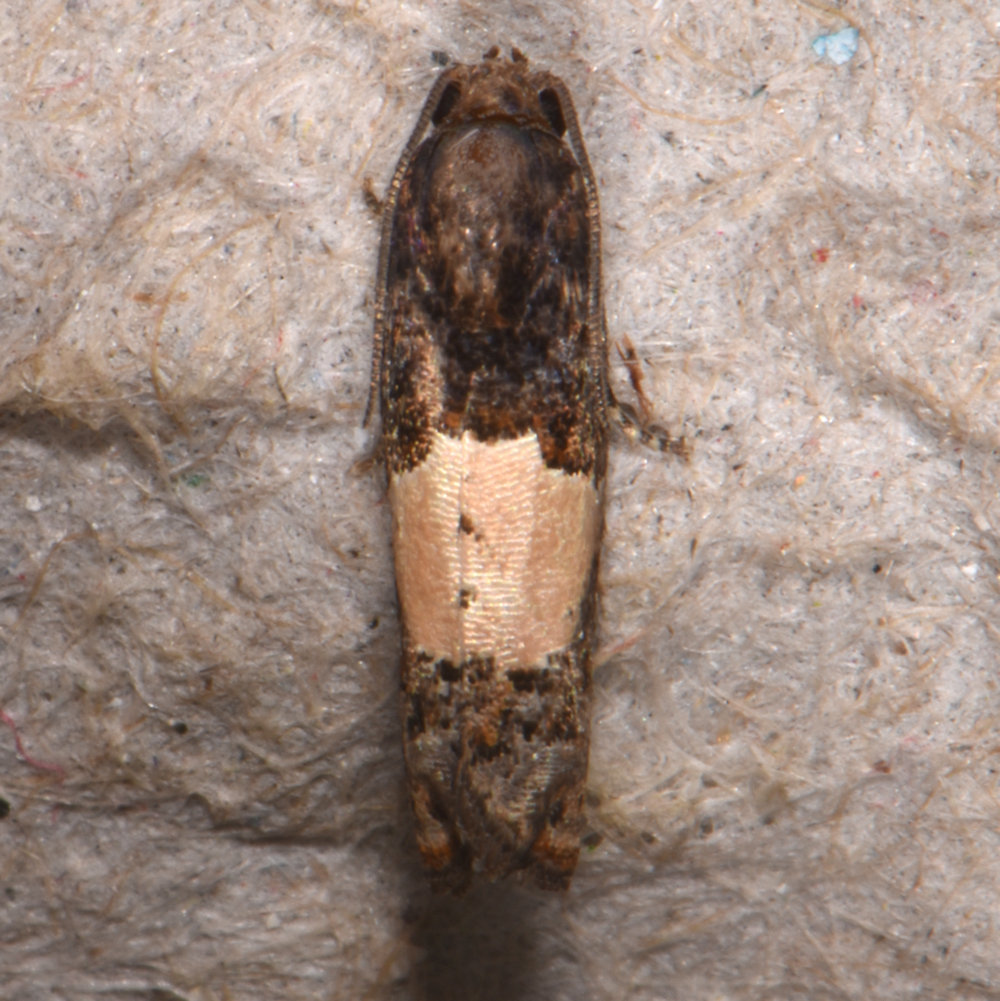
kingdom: Animalia
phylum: Arthropoda
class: Insecta
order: Lepidoptera
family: Tortricidae
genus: Epiblema
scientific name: Epiblema glenni
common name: Glenn's epiblema
